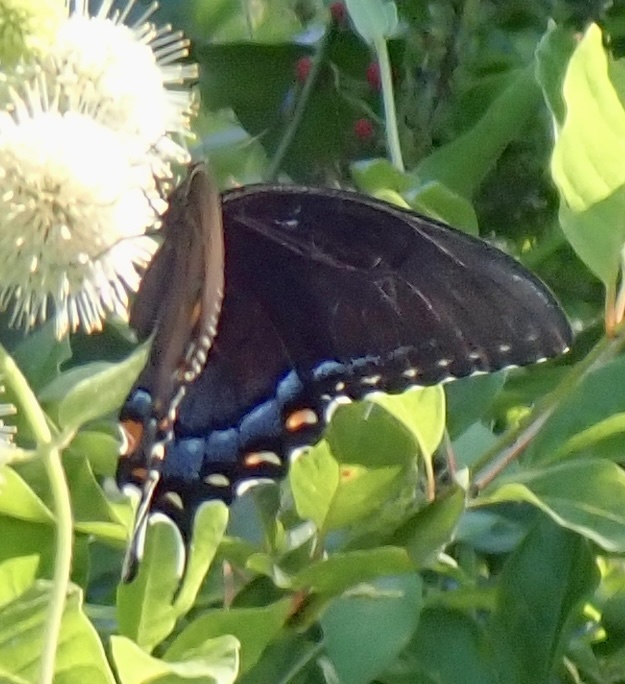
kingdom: Animalia
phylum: Arthropoda
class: Insecta
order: Lepidoptera
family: Papilionidae
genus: Papilio
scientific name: Papilio glaucus
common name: Tiger swallowtail
